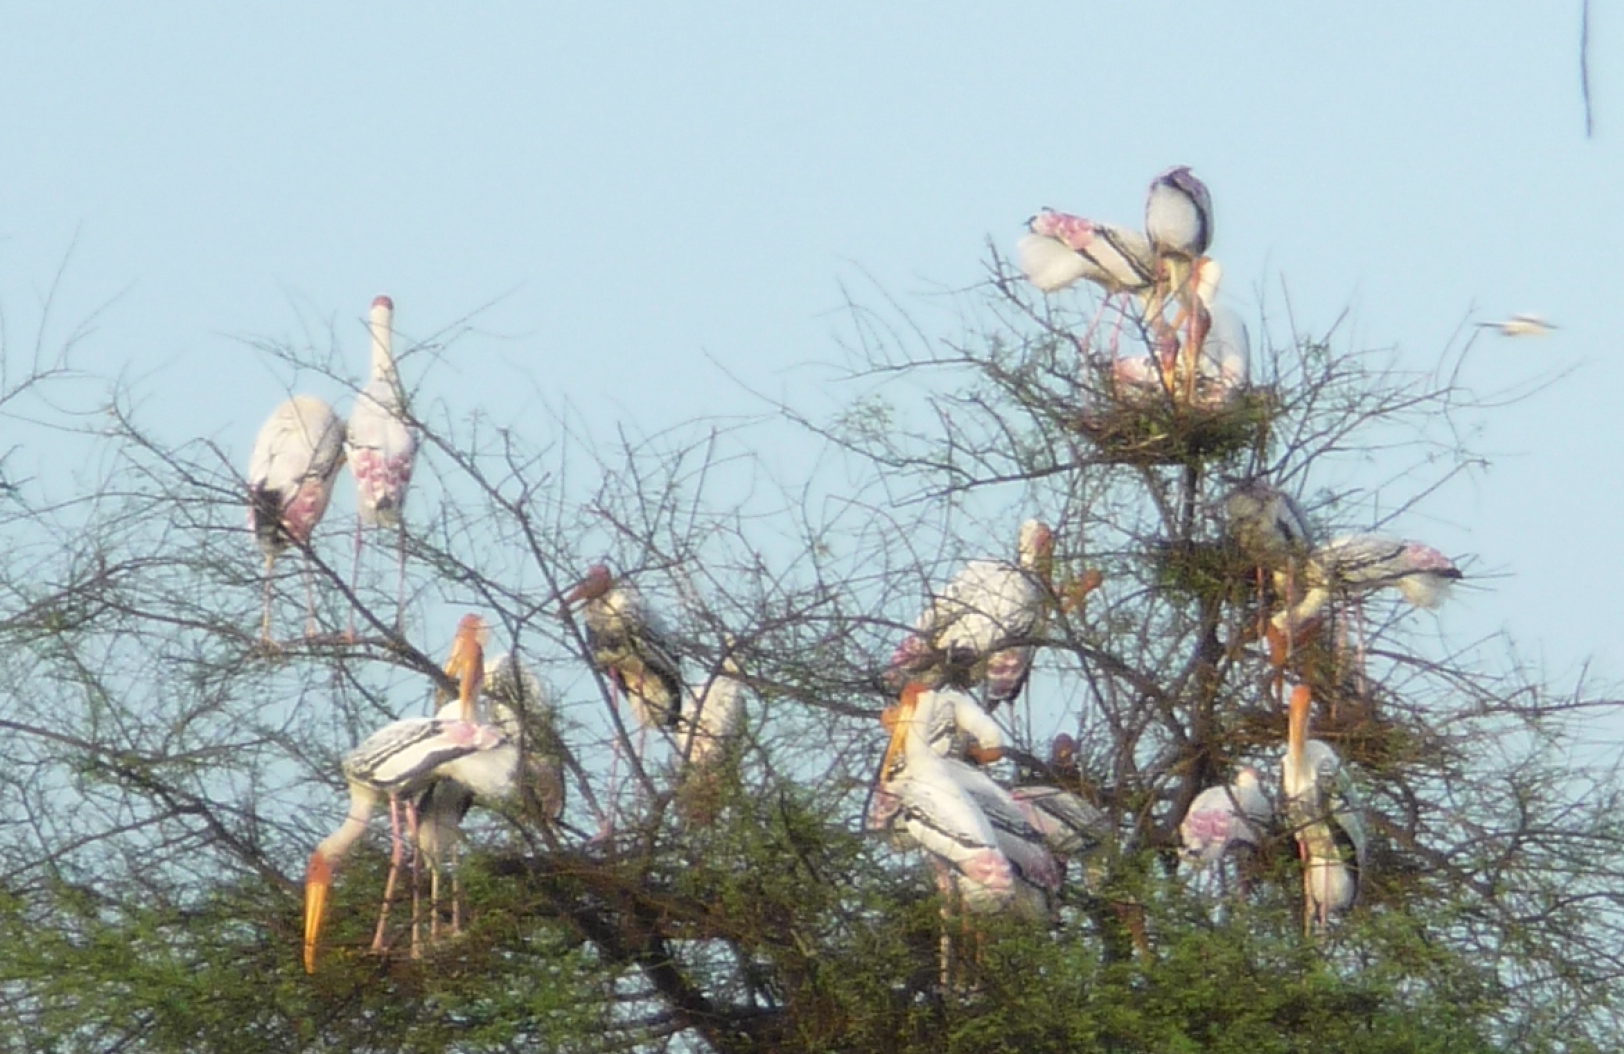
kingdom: Animalia
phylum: Chordata
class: Aves
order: Ciconiiformes
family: Ciconiidae
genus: Mycteria
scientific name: Mycteria leucocephala
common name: Painted stork
